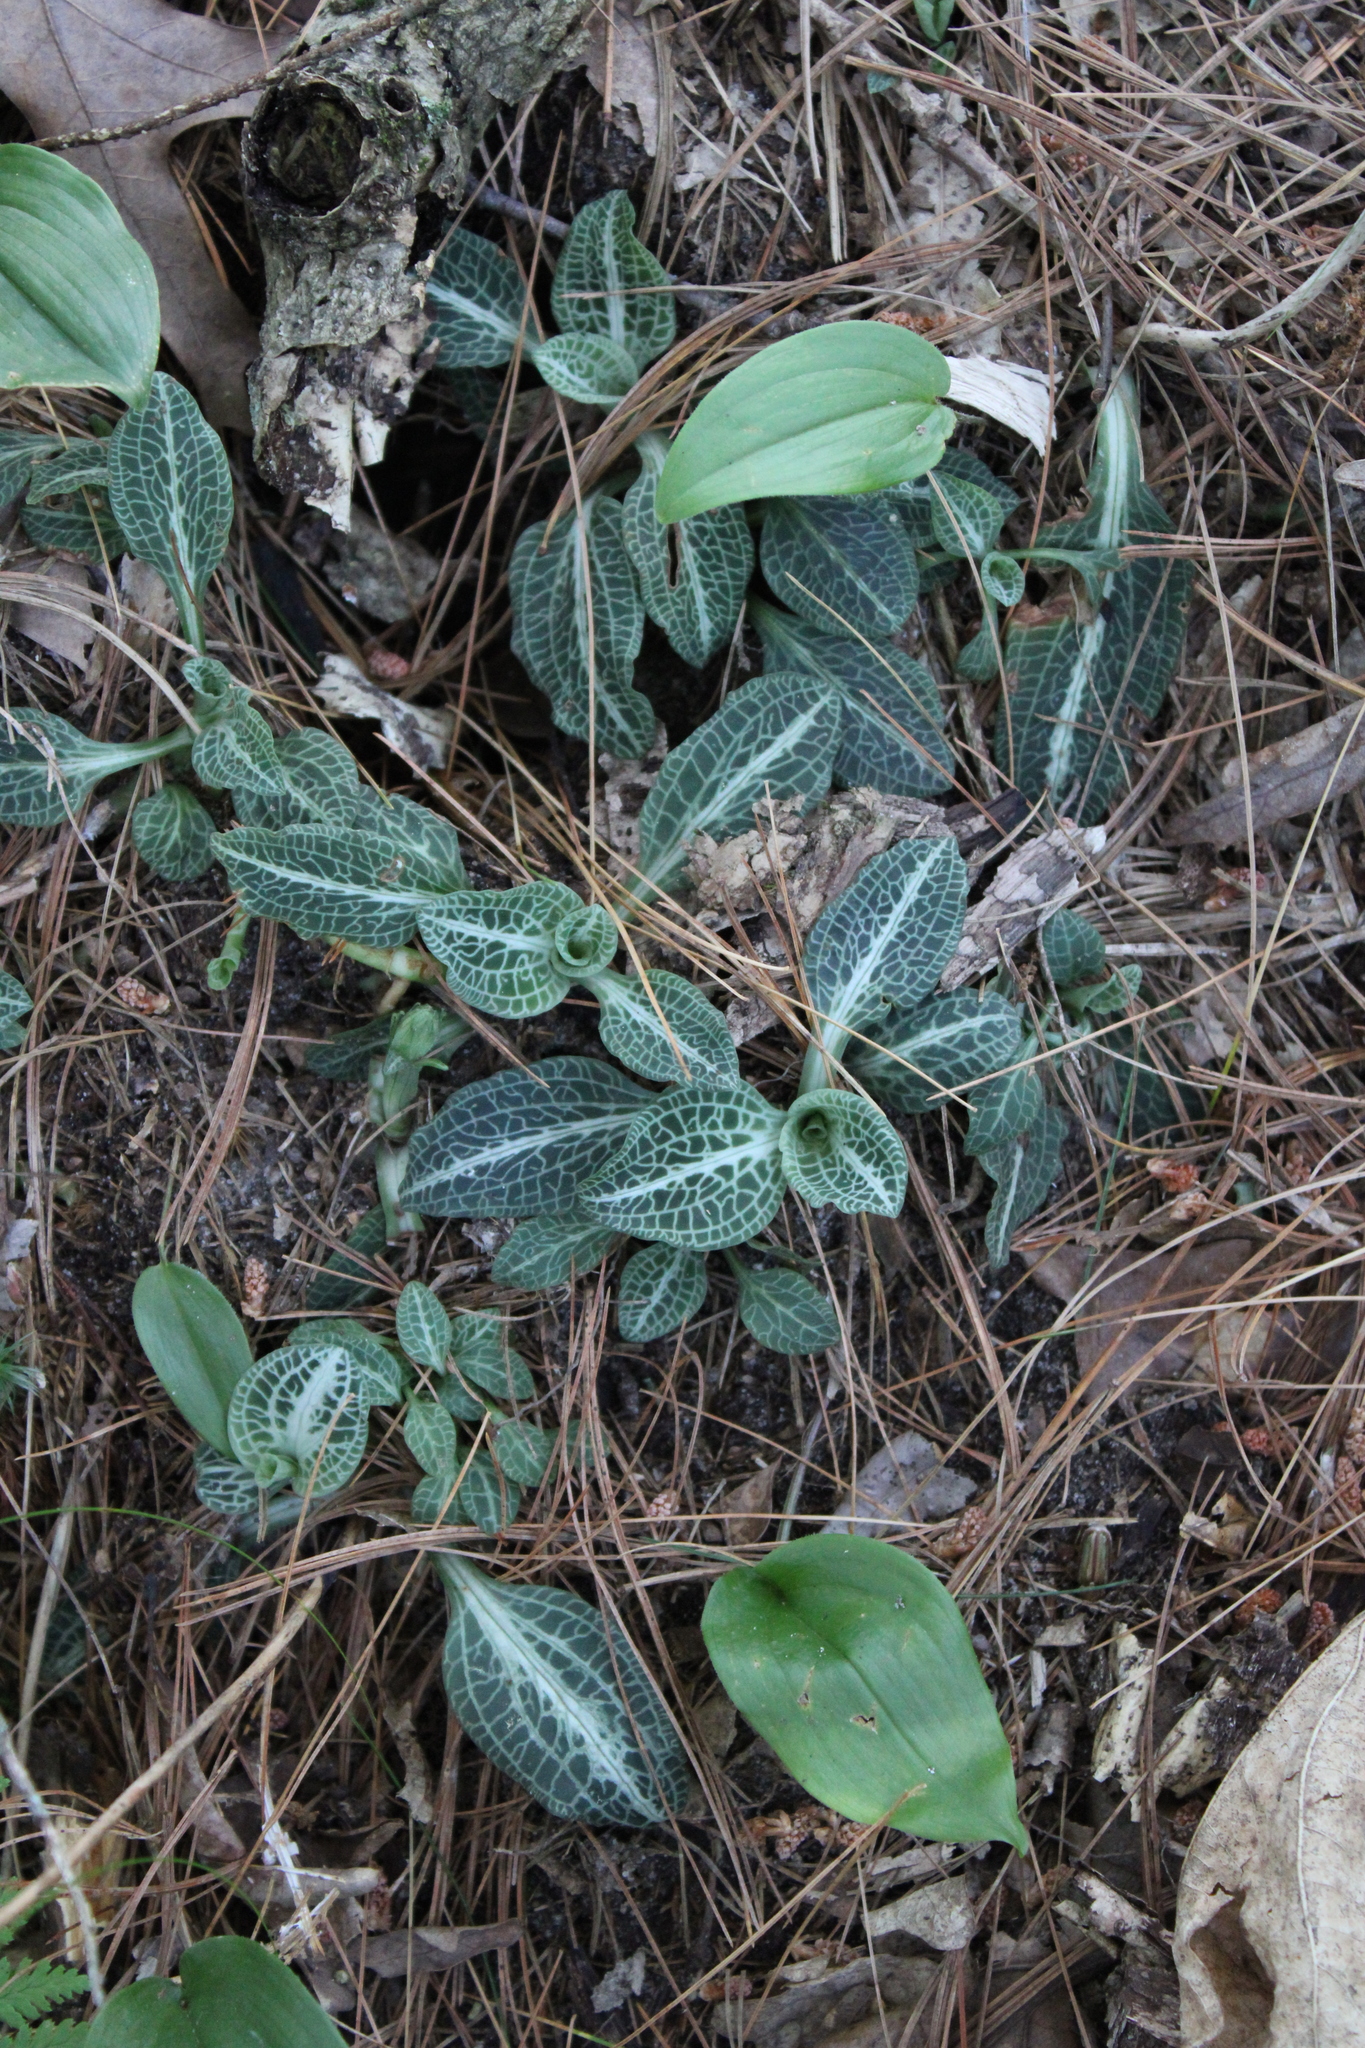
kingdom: Plantae
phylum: Tracheophyta
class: Liliopsida
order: Asparagales
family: Orchidaceae
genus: Goodyera
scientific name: Goodyera pubescens
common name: Downy rattlesnake-plantain
